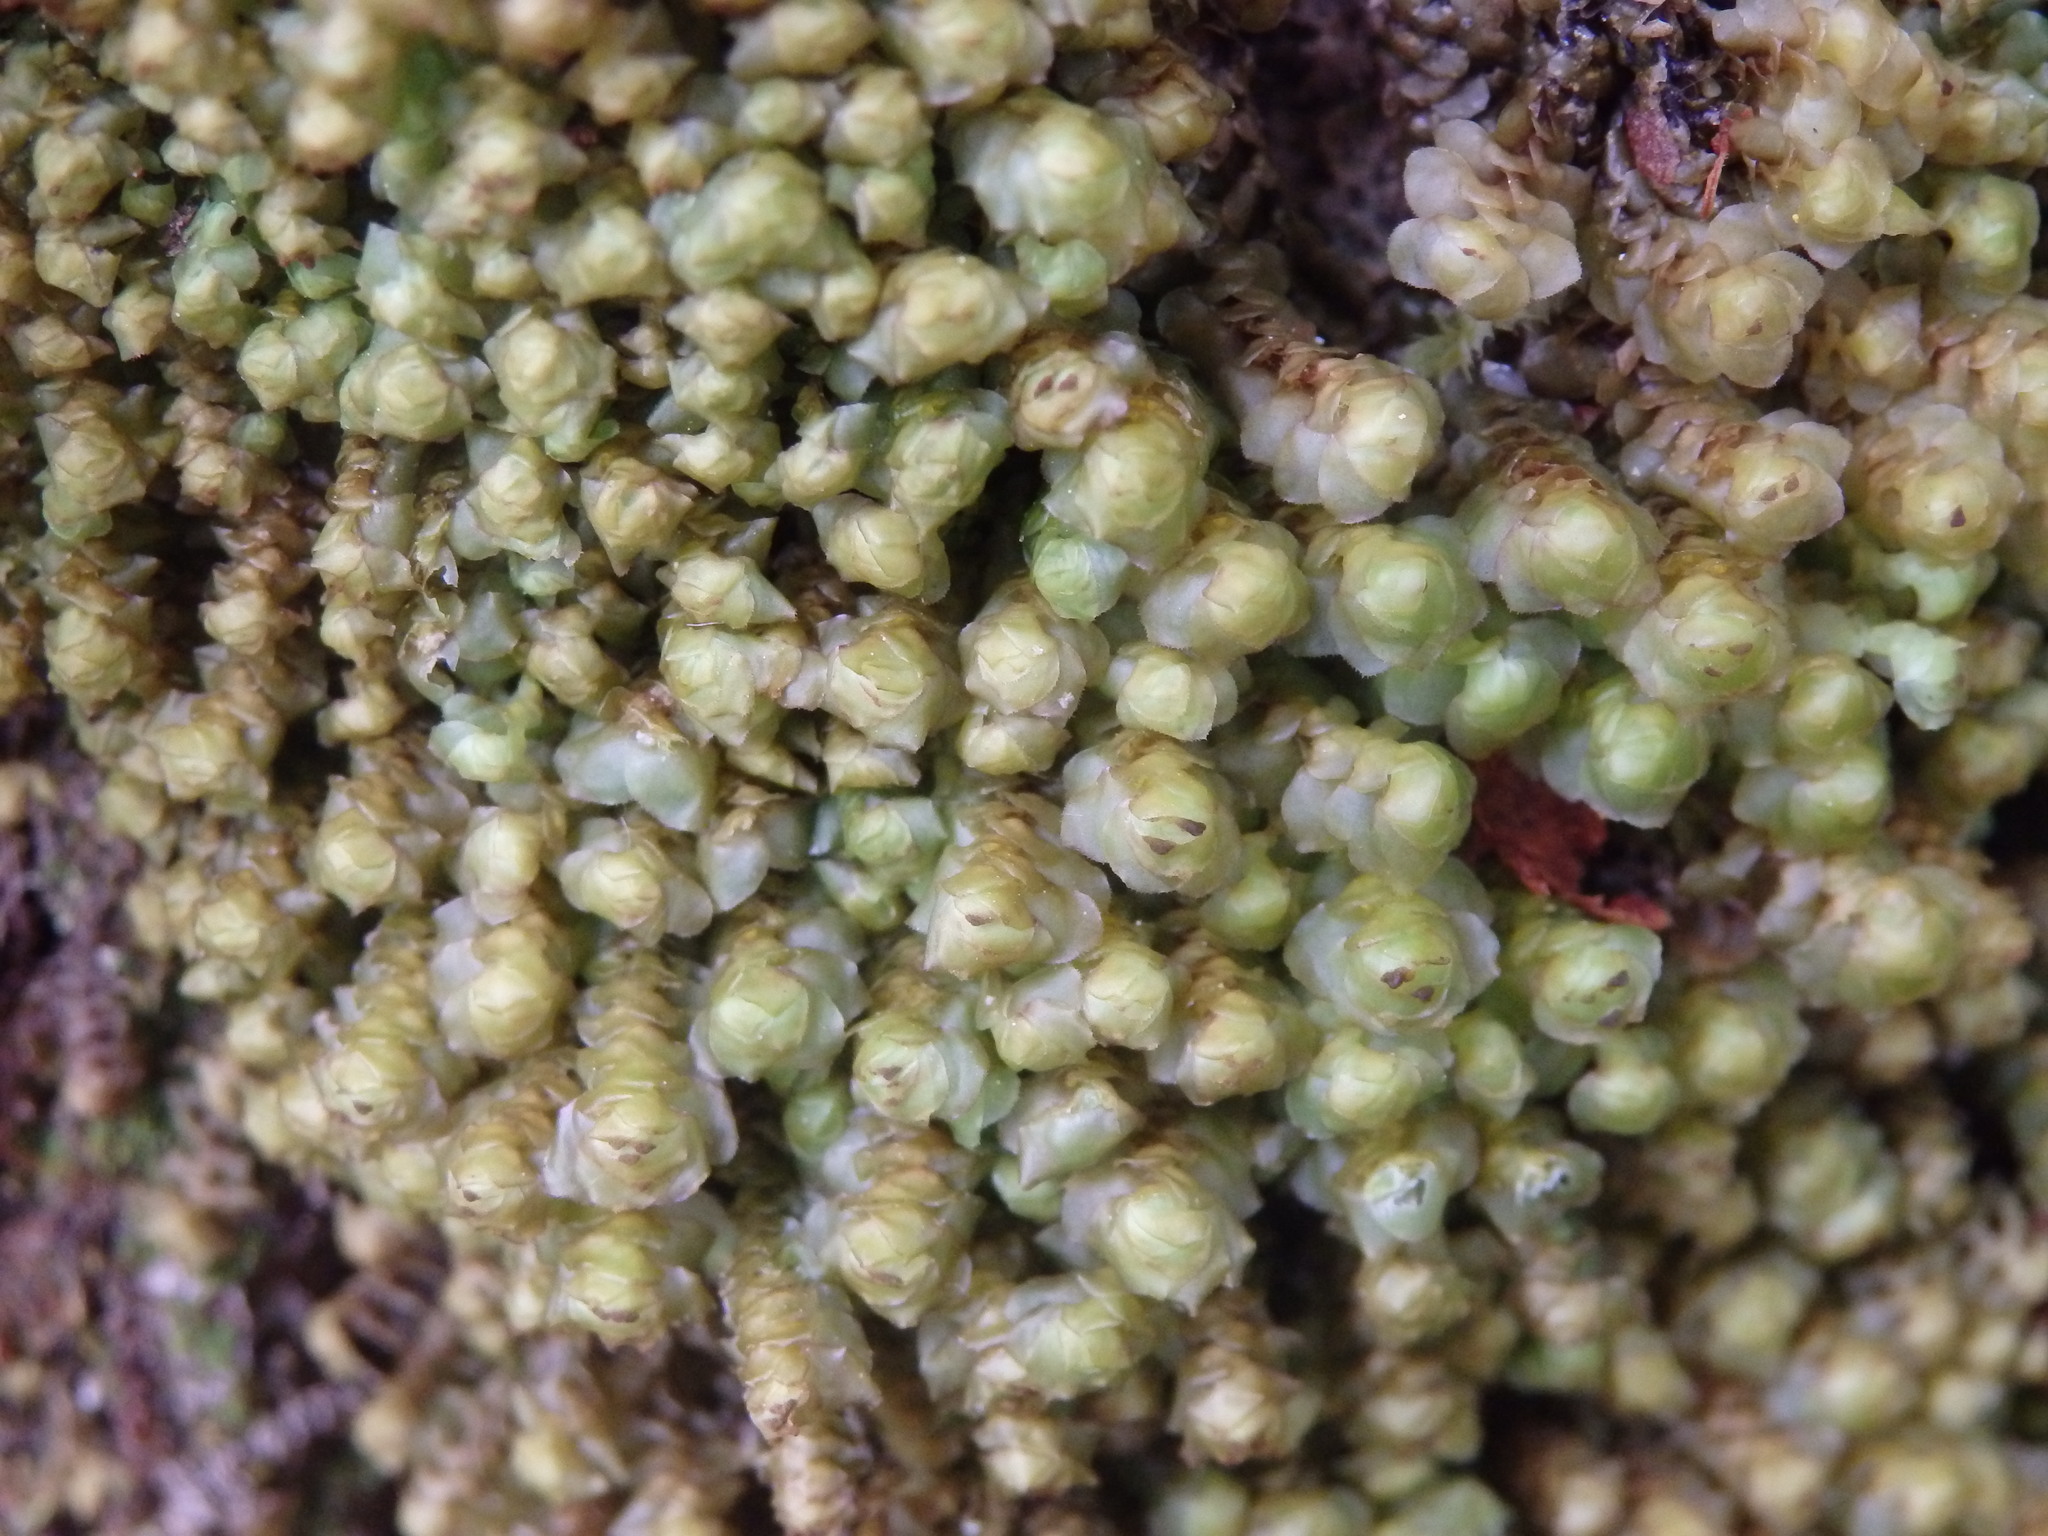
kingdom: Plantae
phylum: Marchantiophyta
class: Jungermanniopsida
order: Jungermanniales
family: Scapaniaceae
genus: Scapania
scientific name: Scapania nemorea
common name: Grove earwort
